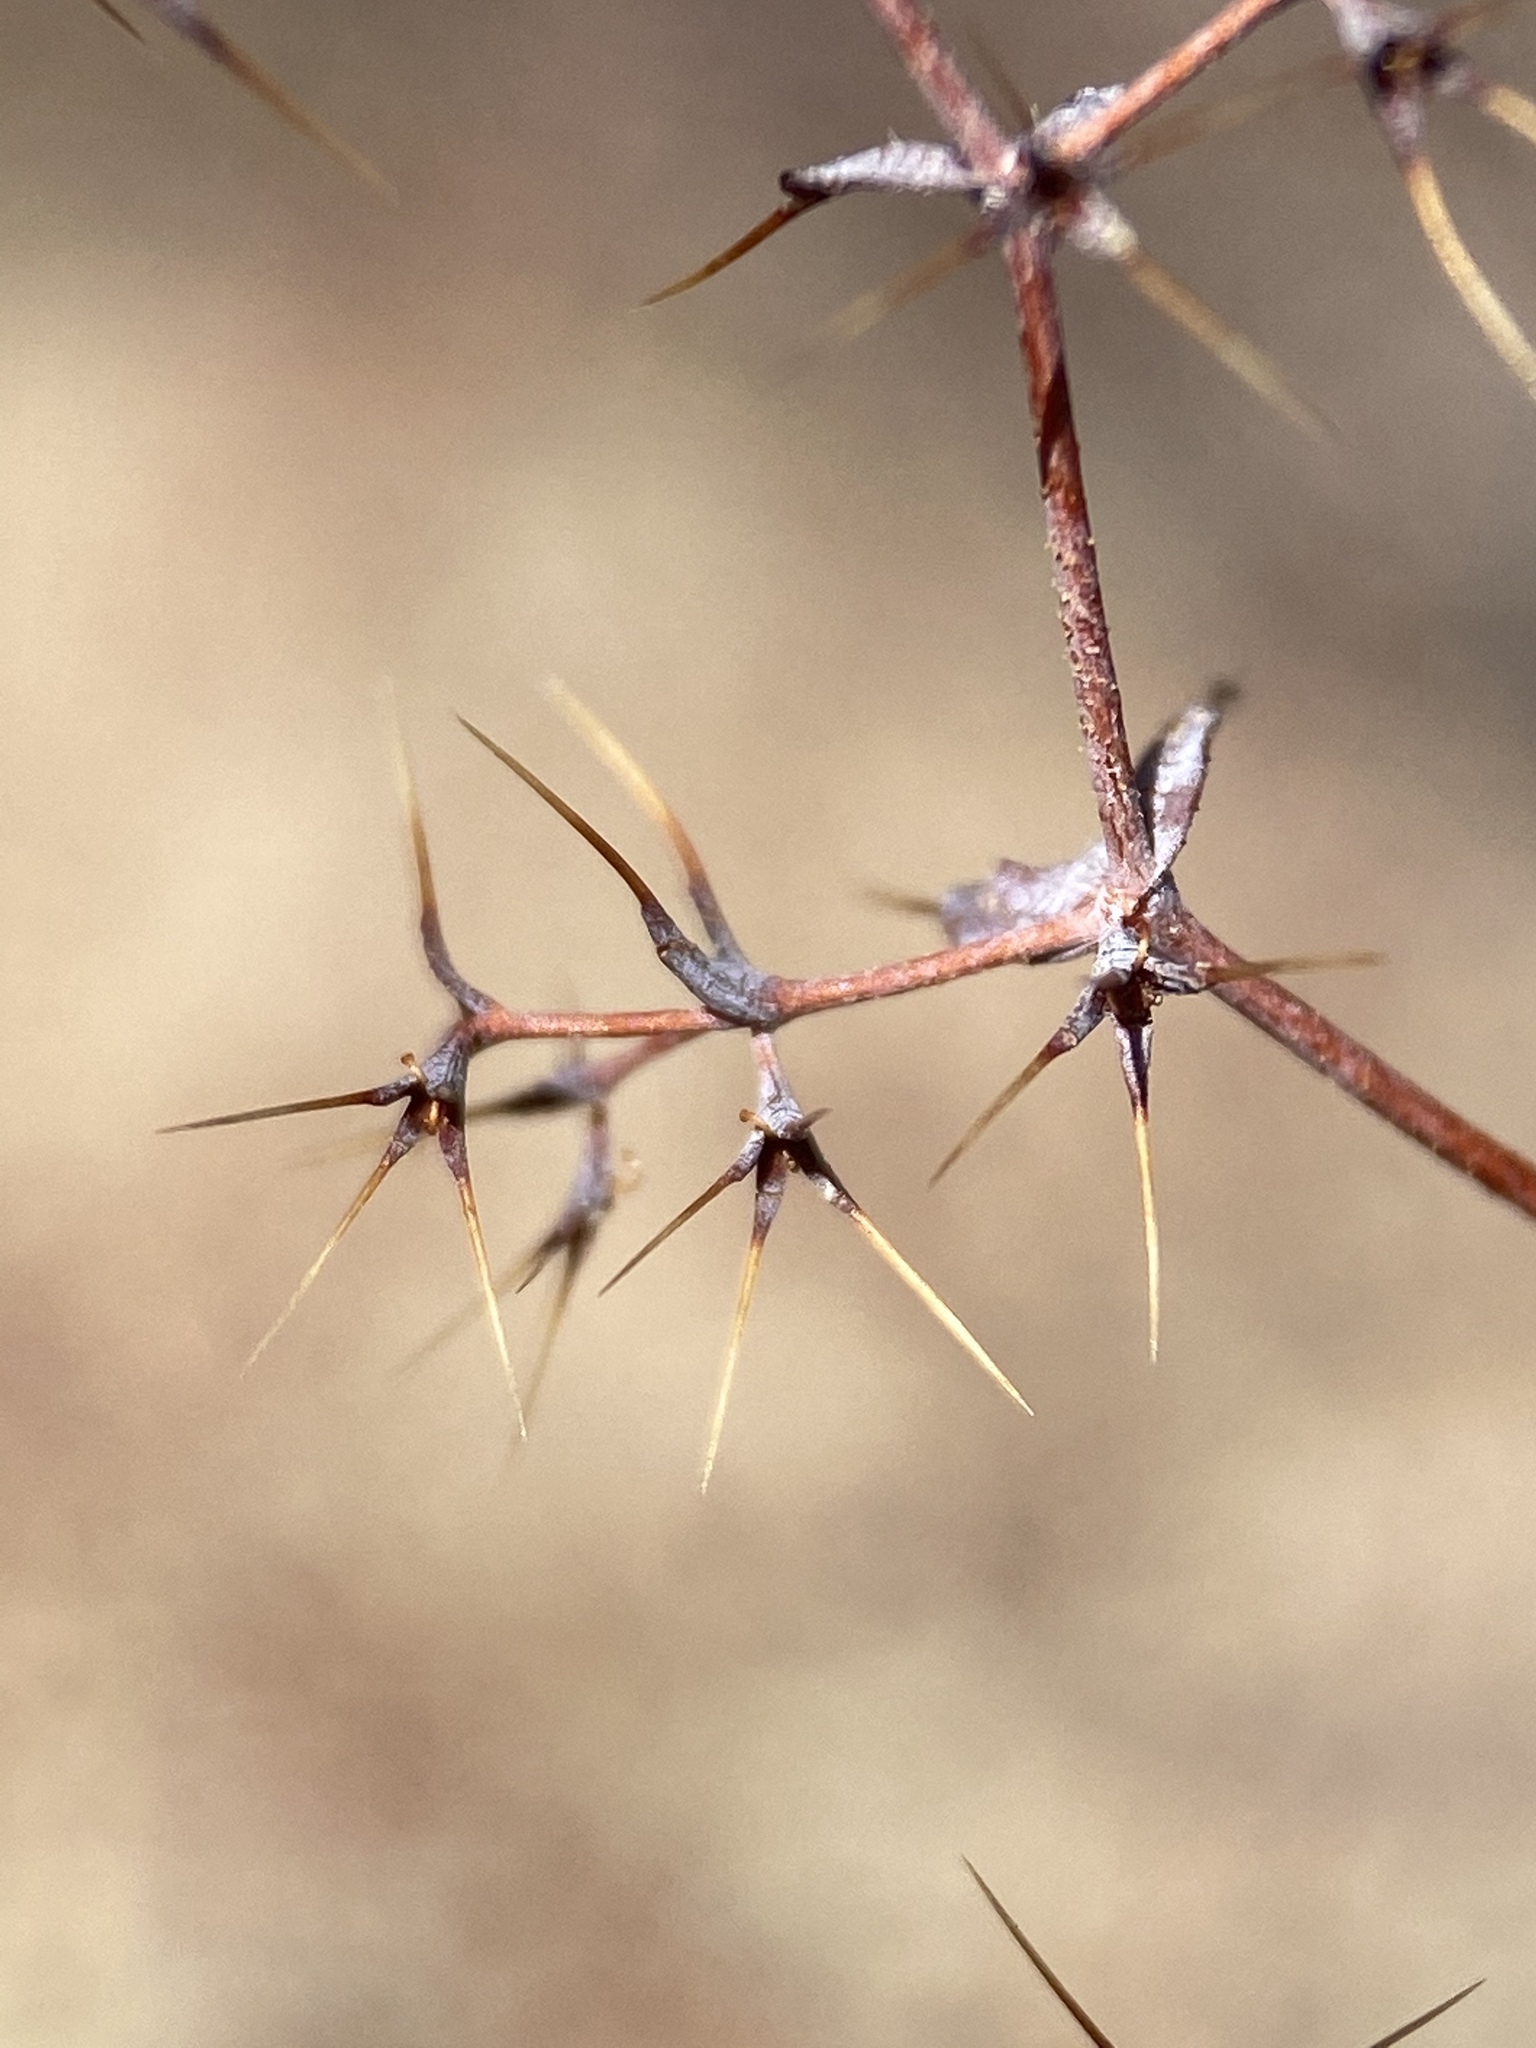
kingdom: Plantae
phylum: Tracheophyta
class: Magnoliopsida
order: Caryophyllales
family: Polygonaceae
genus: Oxytheca
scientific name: Oxytheca watsonii
